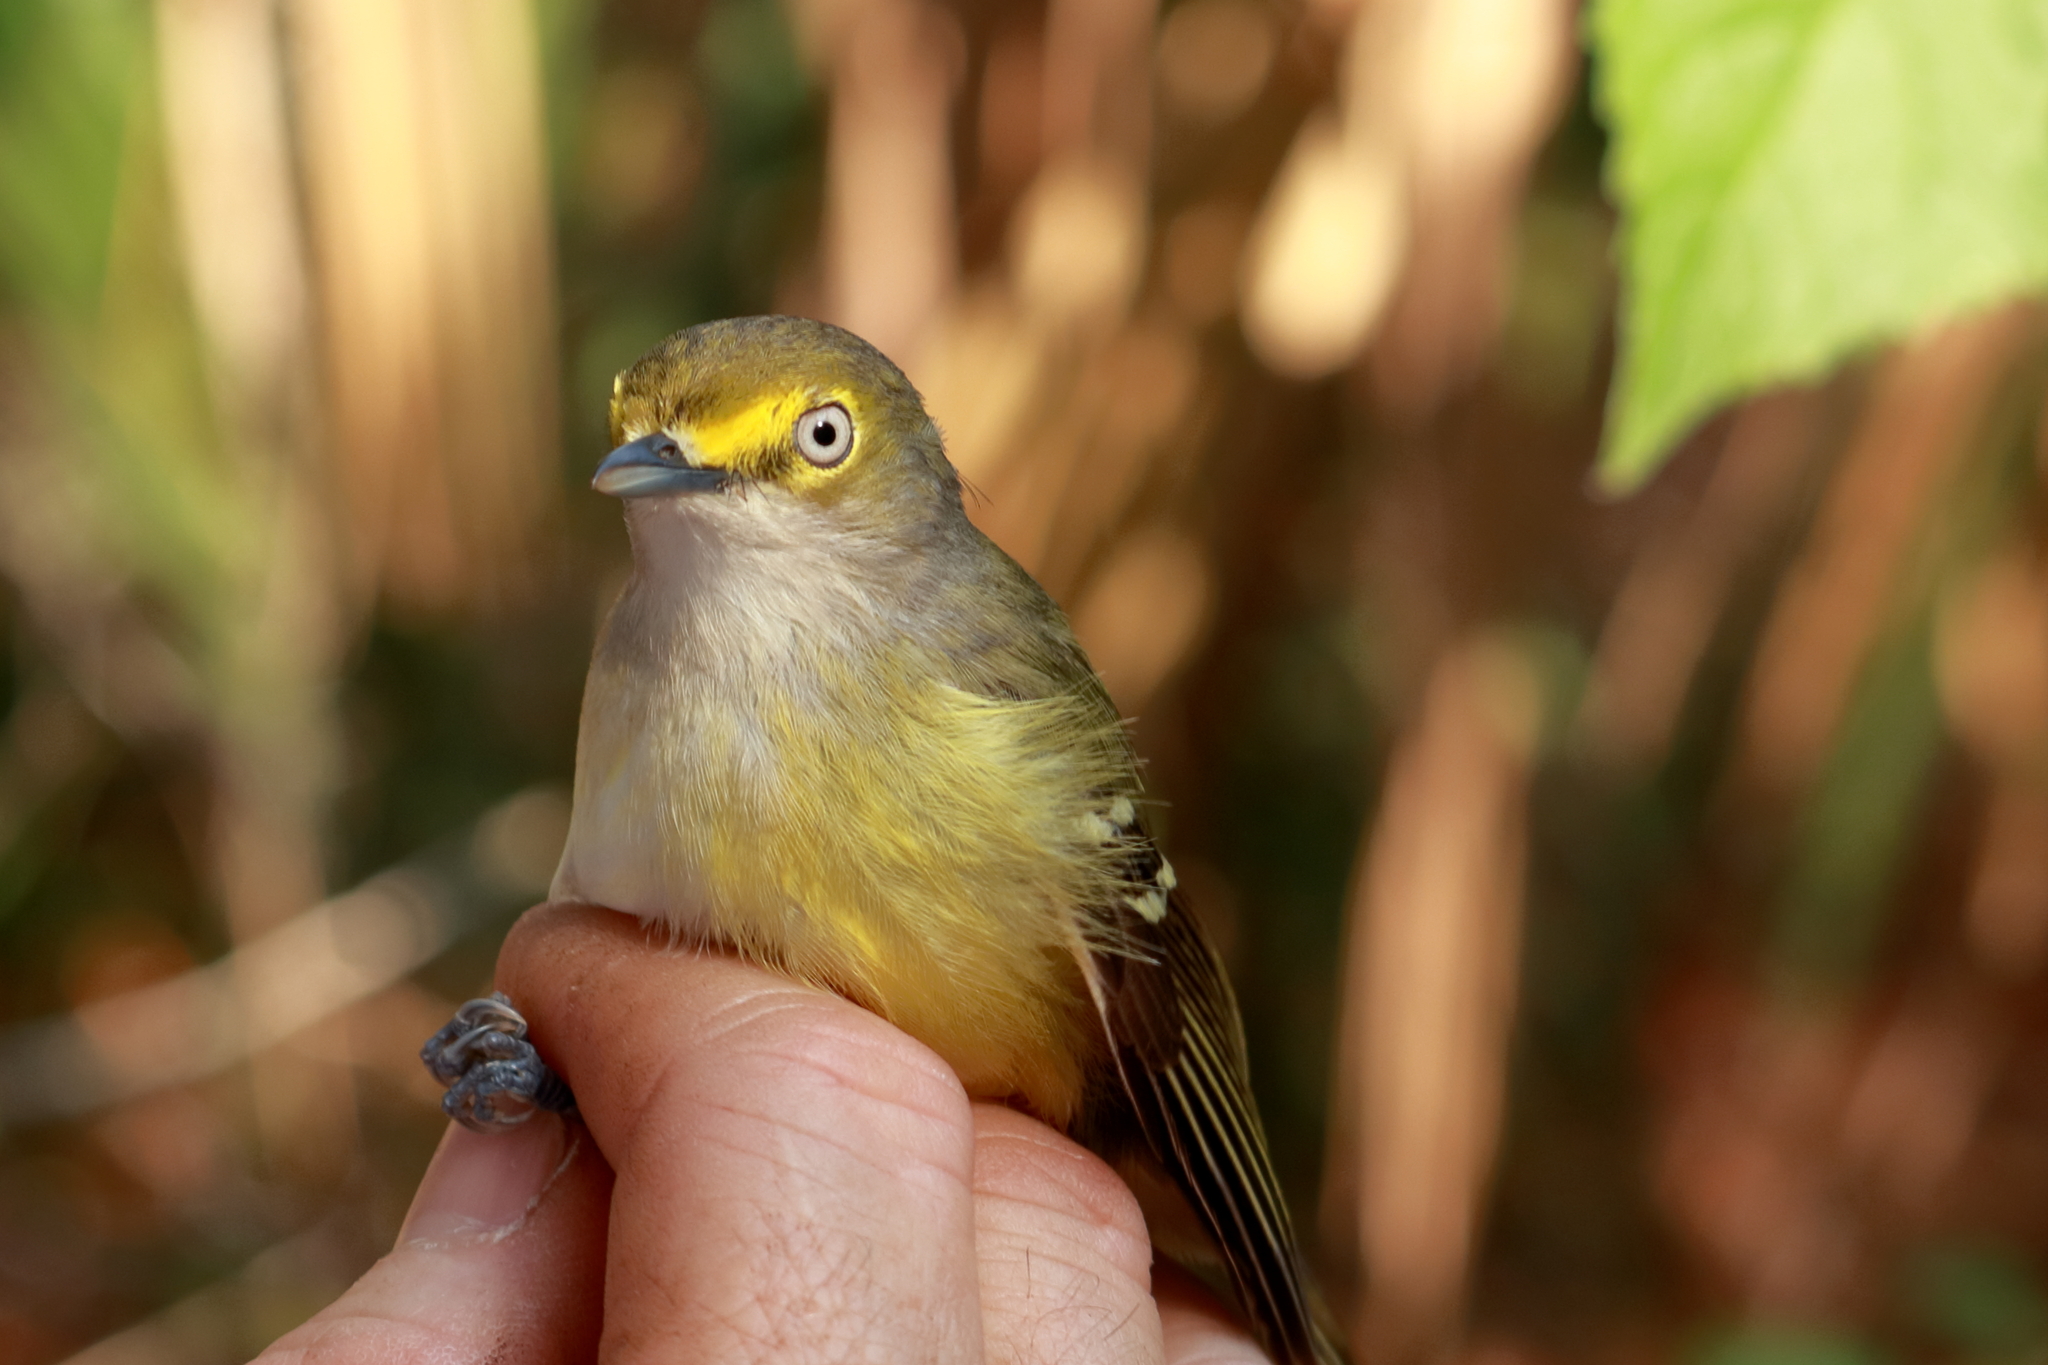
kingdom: Animalia
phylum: Chordata
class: Aves
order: Passeriformes
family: Vireonidae
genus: Vireo
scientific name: Vireo griseus
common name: White-eyed vireo
